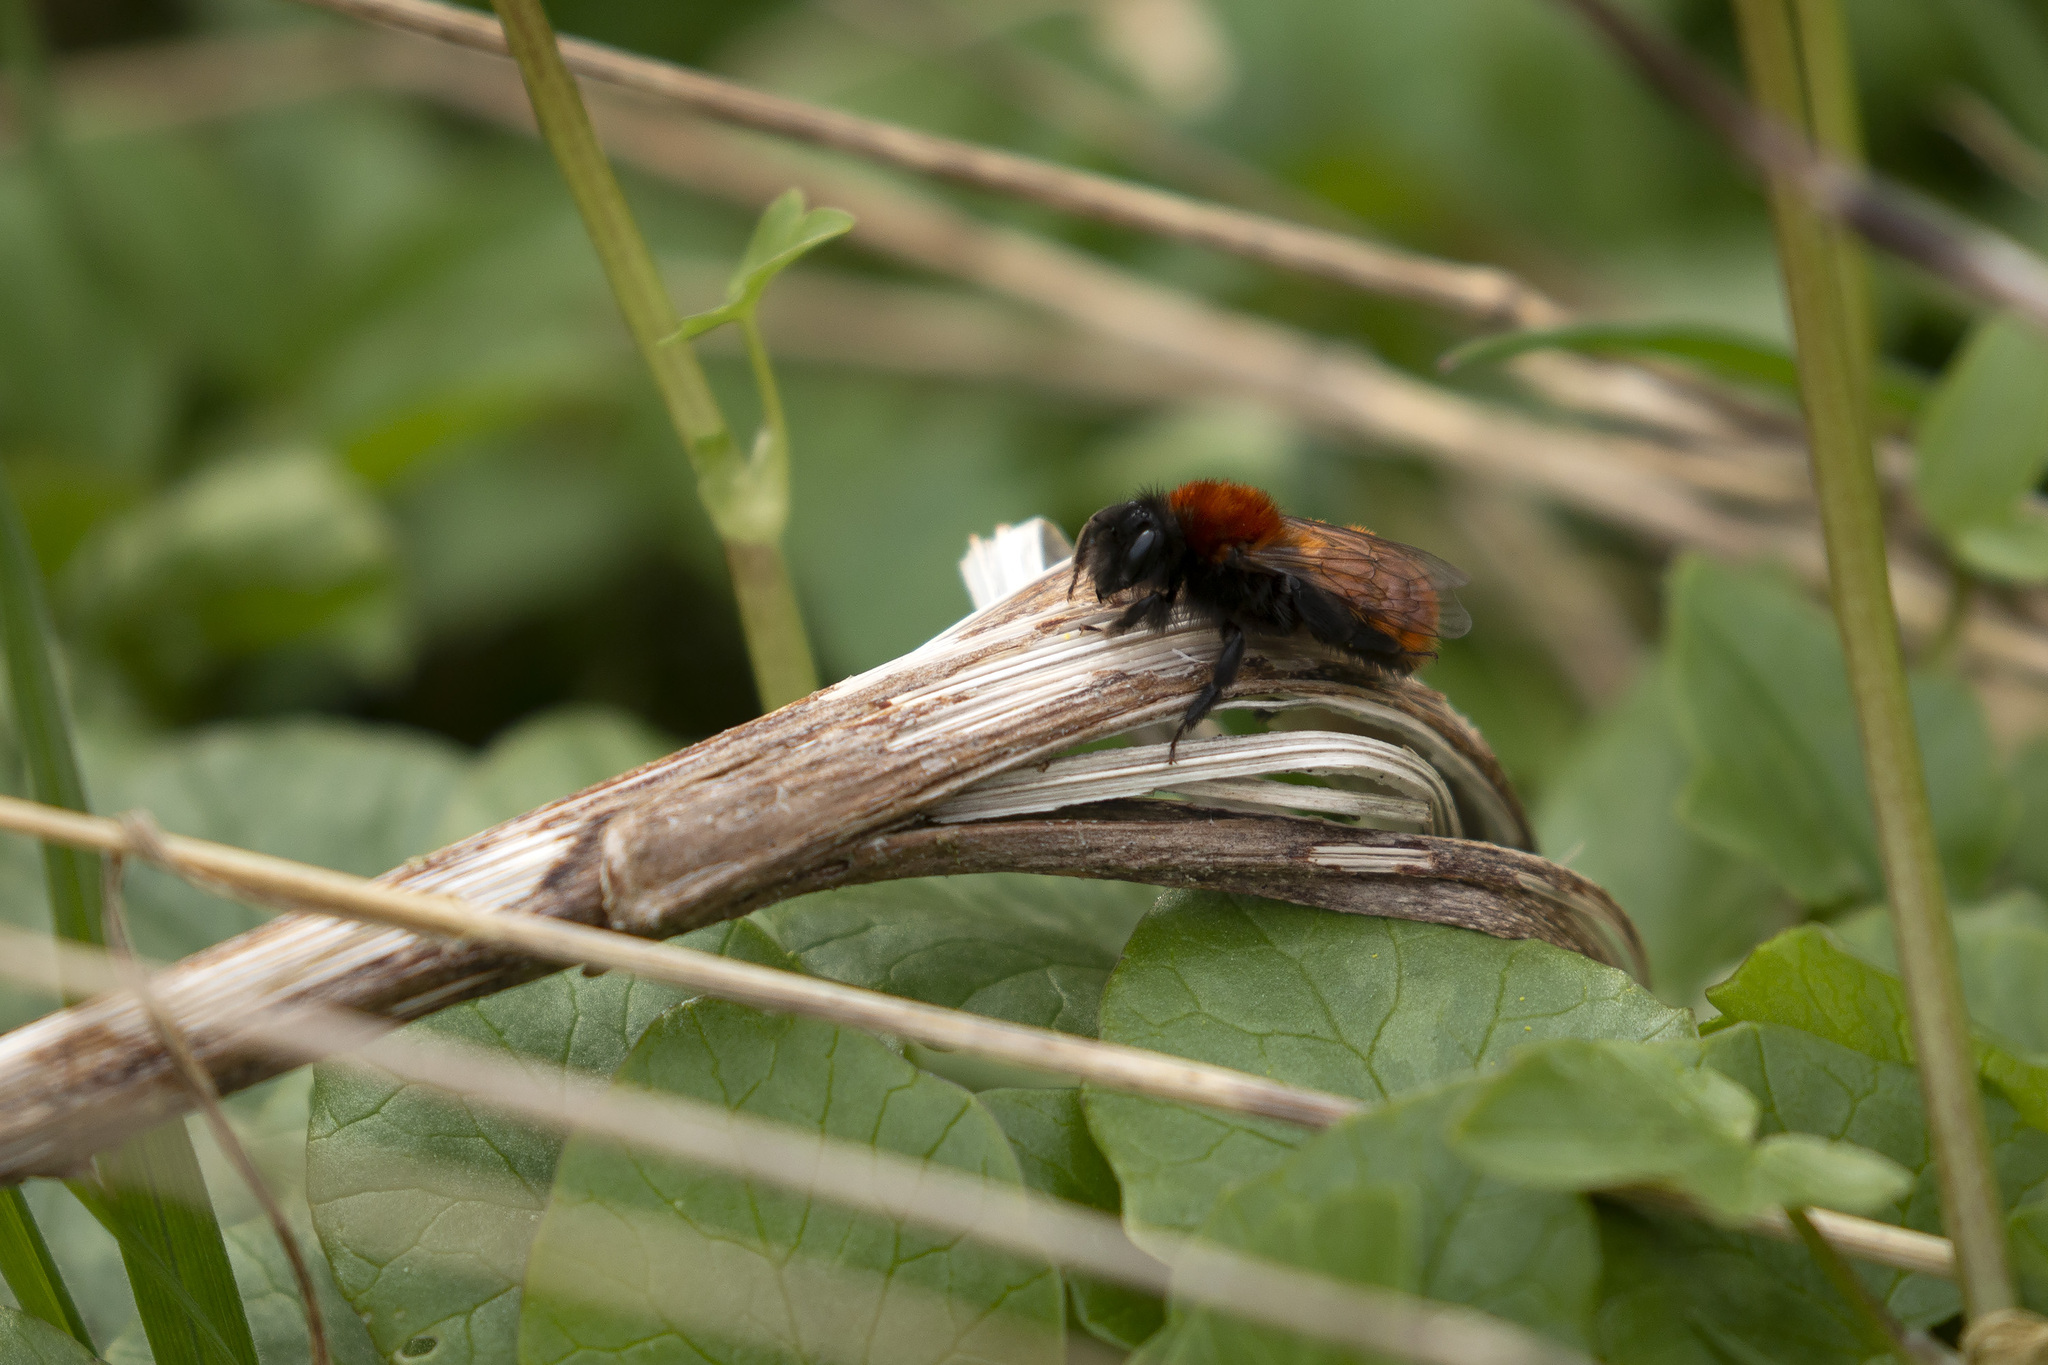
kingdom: Animalia
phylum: Arthropoda
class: Insecta
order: Hymenoptera
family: Andrenidae
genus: Andrena
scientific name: Andrena fulva
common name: Tawny mining bee
